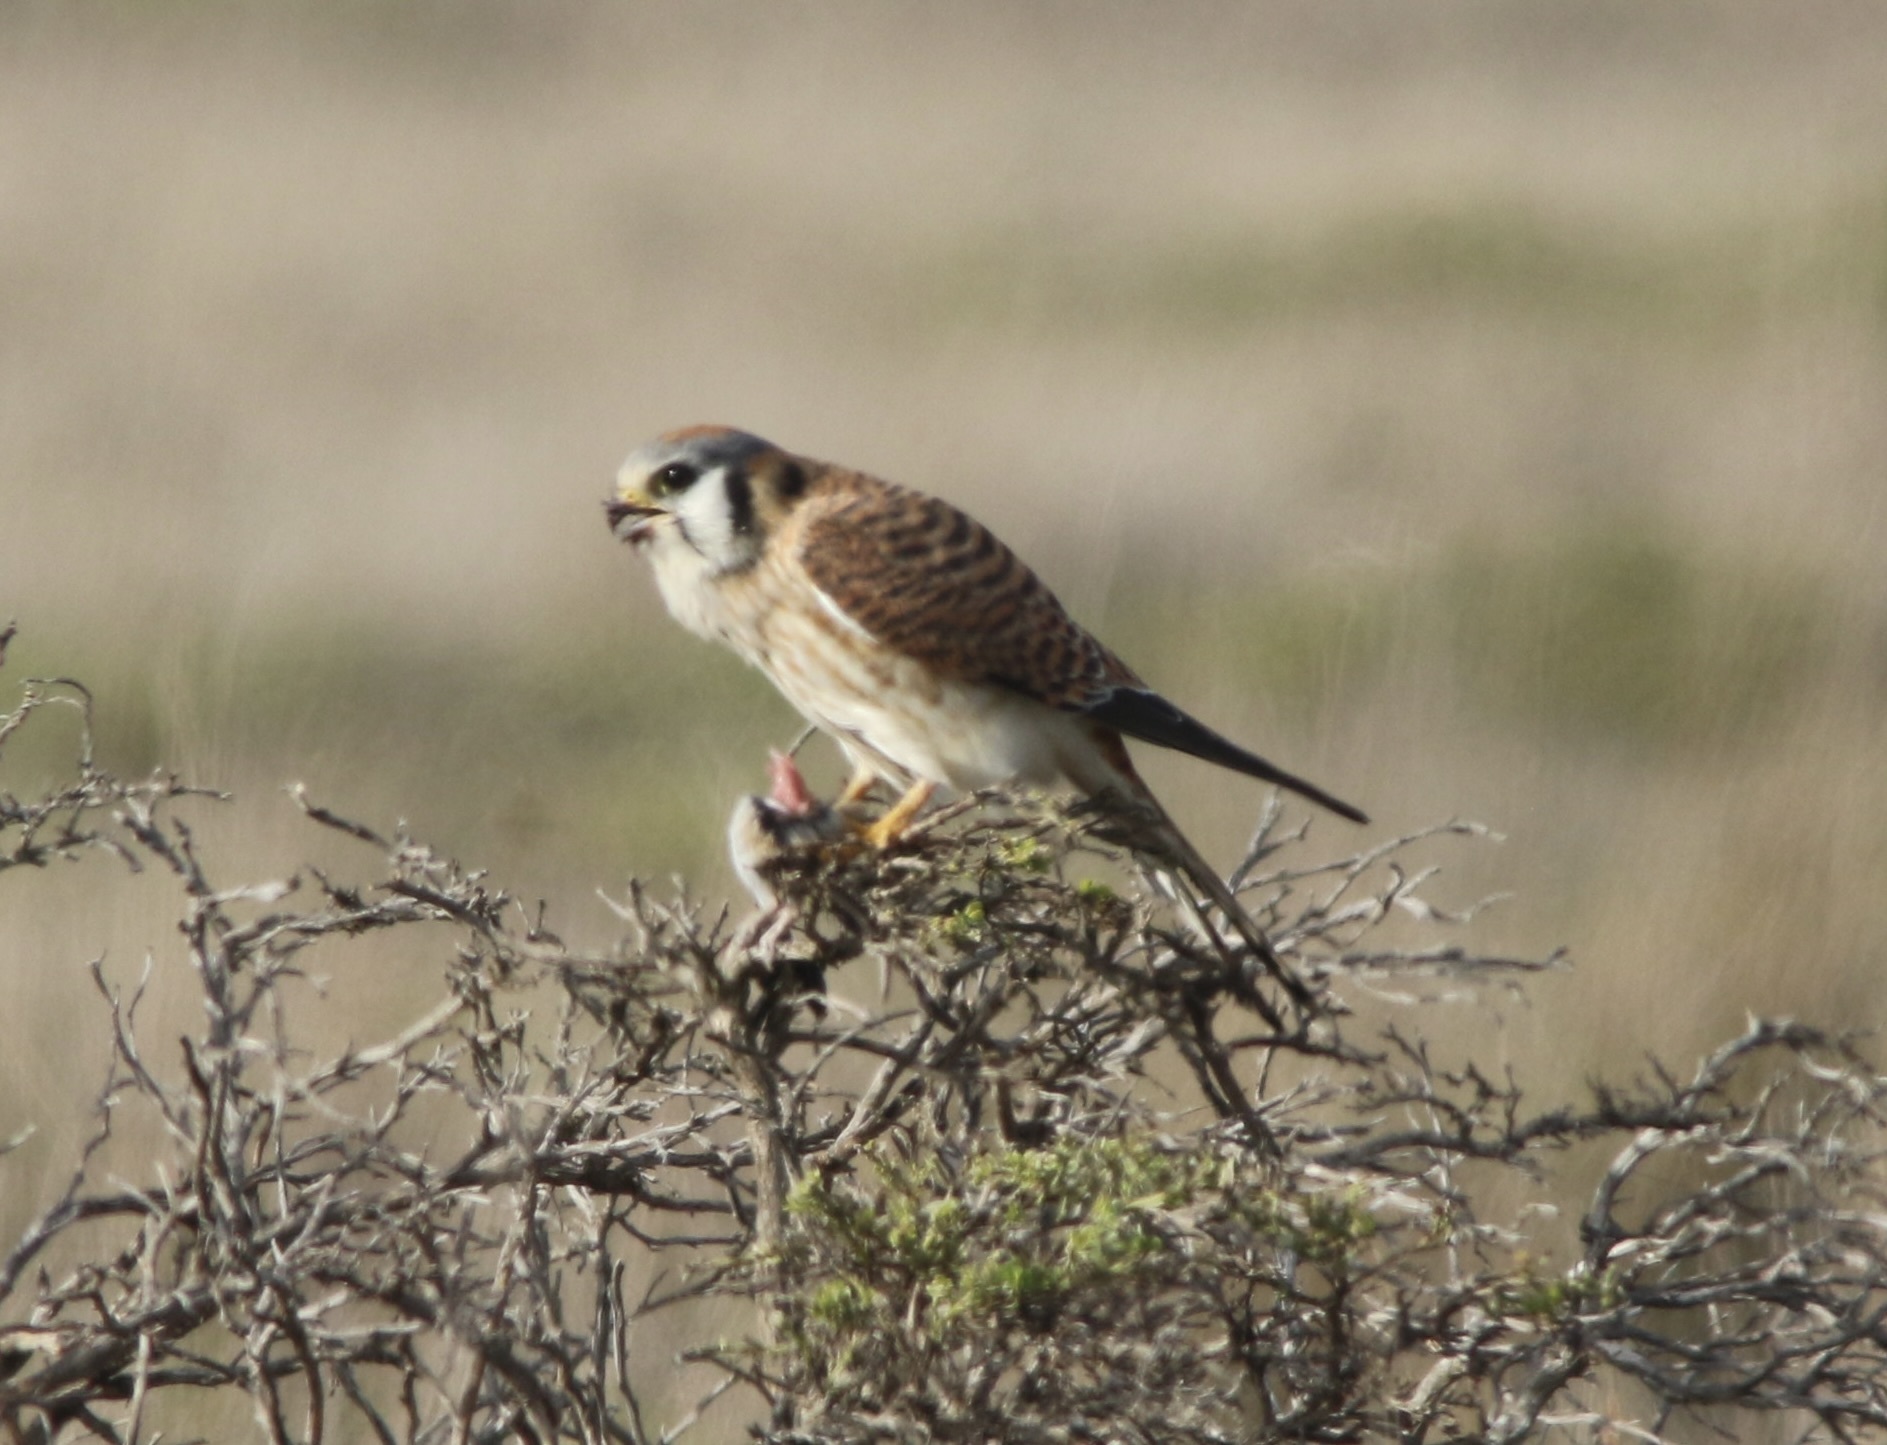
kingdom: Animalia
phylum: Chordata
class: Aves
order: Falconiformes
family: Falconidae
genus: Falco
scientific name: Falco sparverius
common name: American kestrel
